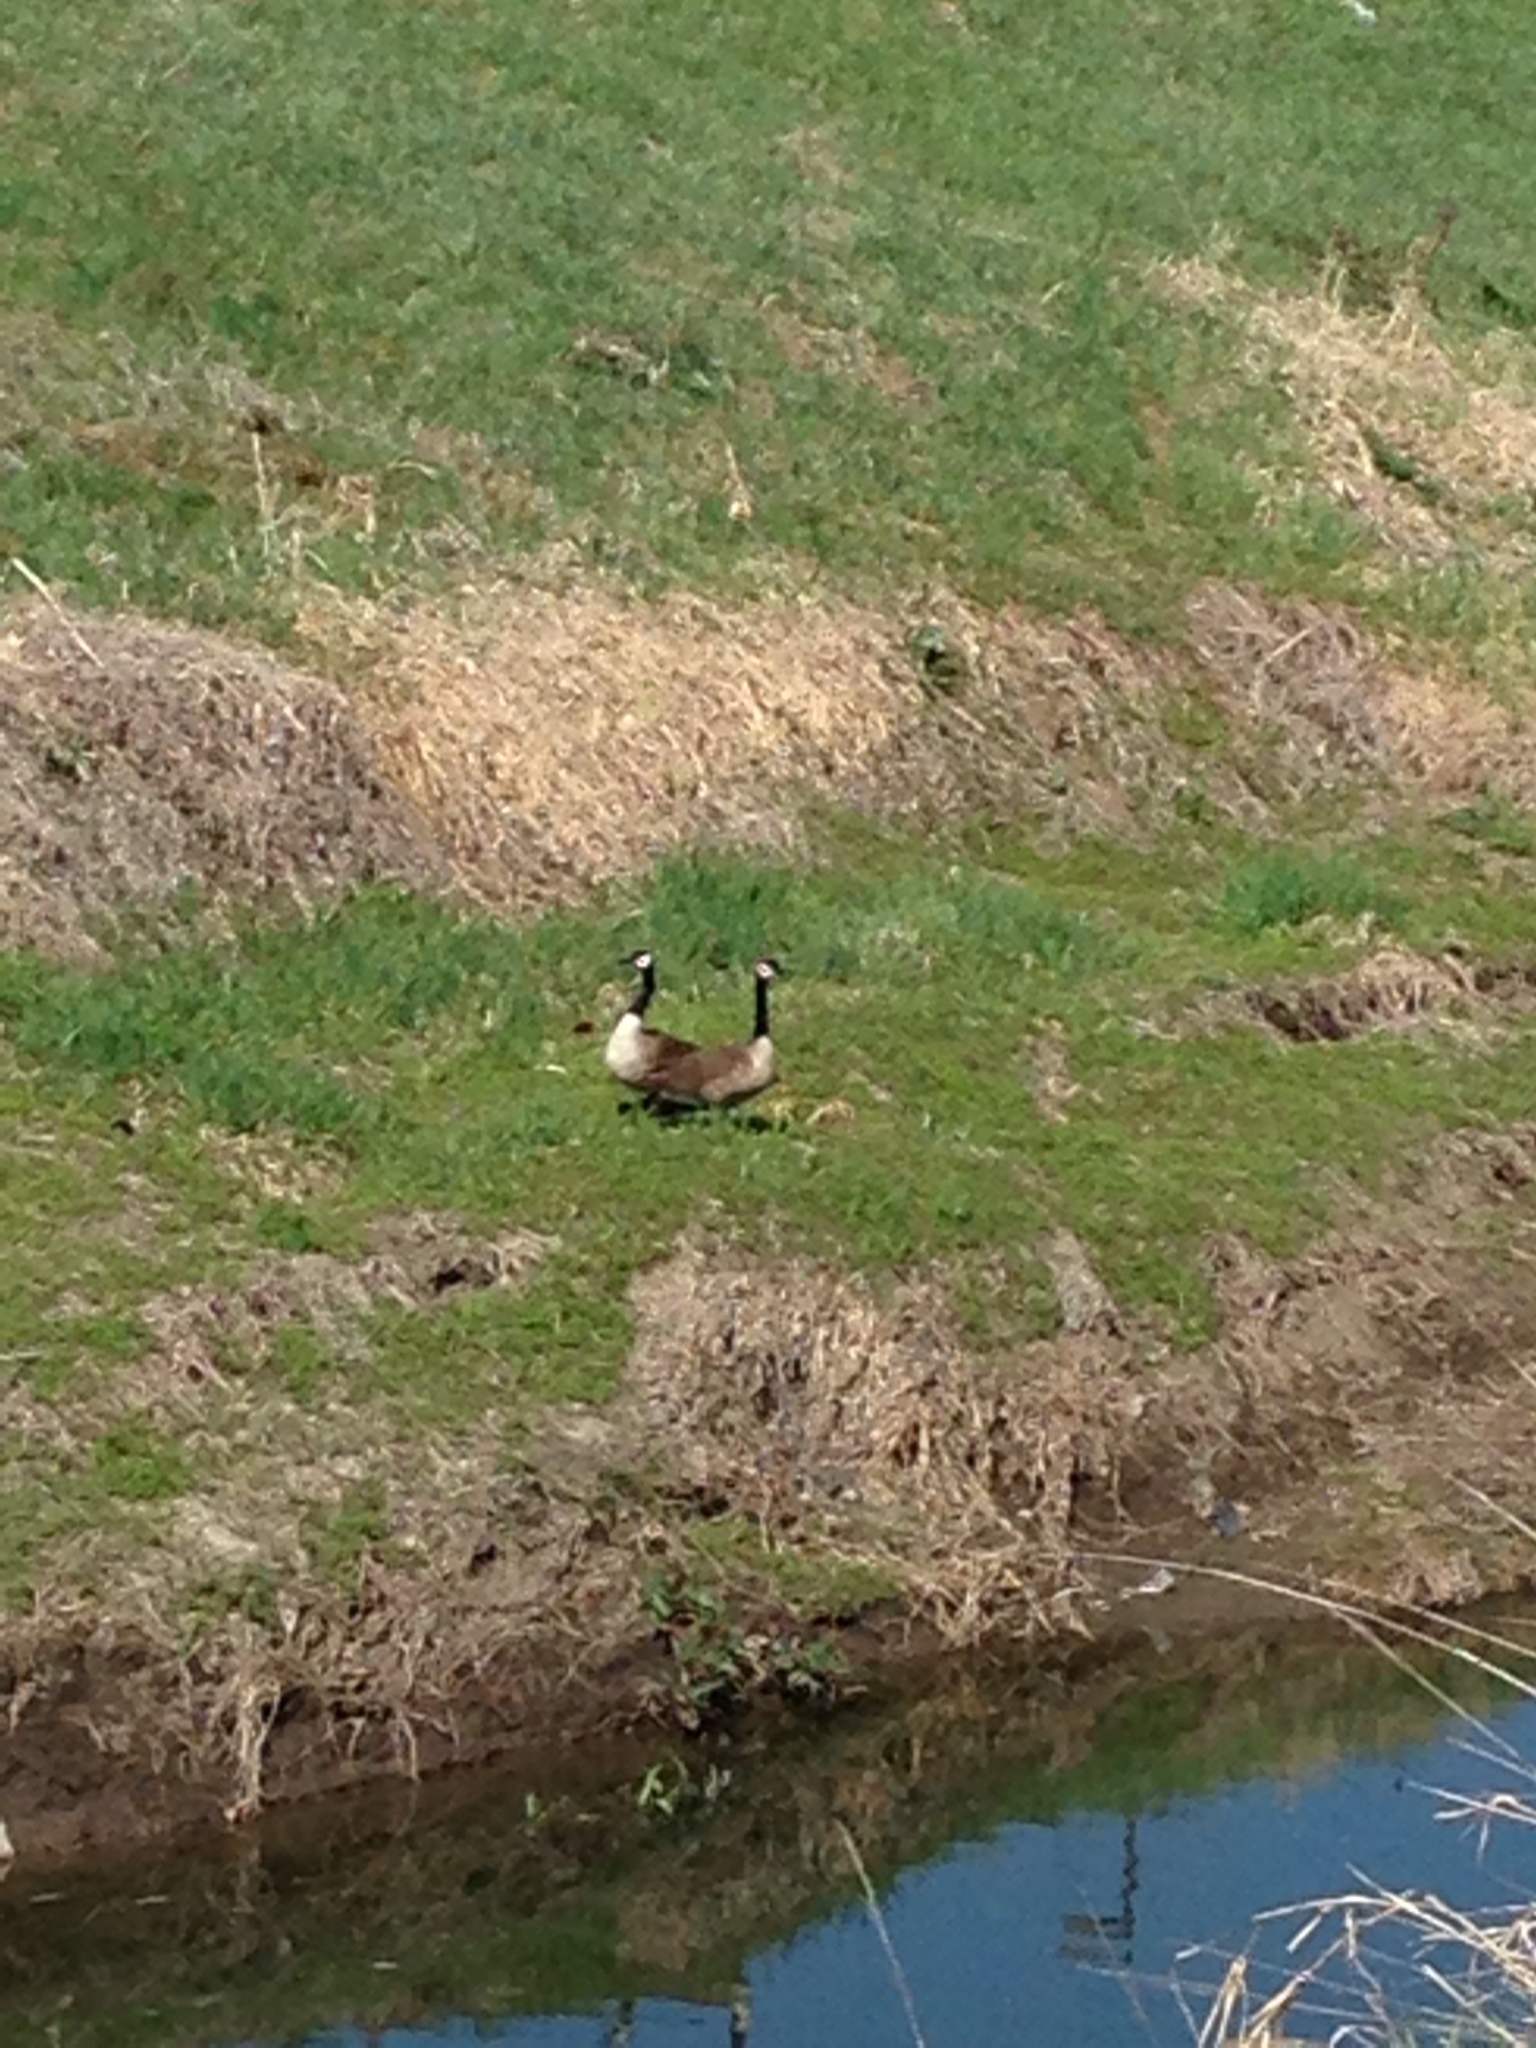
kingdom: Animalia
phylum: Chordata
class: Aves
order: Anseriformes
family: Anatidae
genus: Branta
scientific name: Branta canadensis
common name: Canada goose
